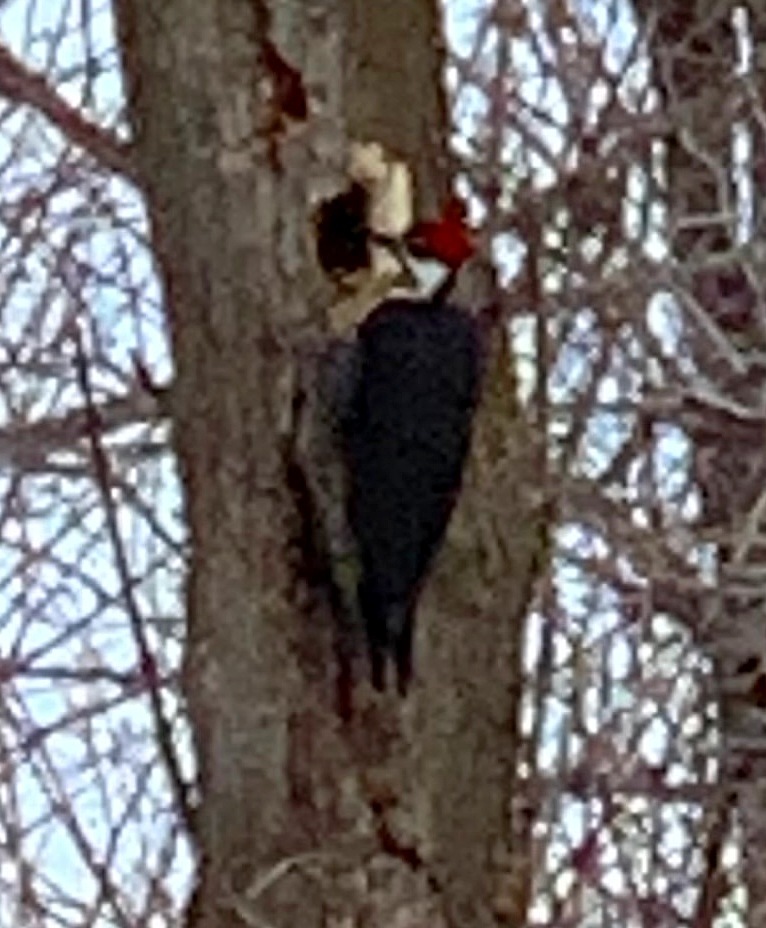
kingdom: Animalia
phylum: Chordata
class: Aves
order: Piciformes
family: Picidae
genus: Dryocopus
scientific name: Dryocopus pileatus
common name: Pileated woodpecker
